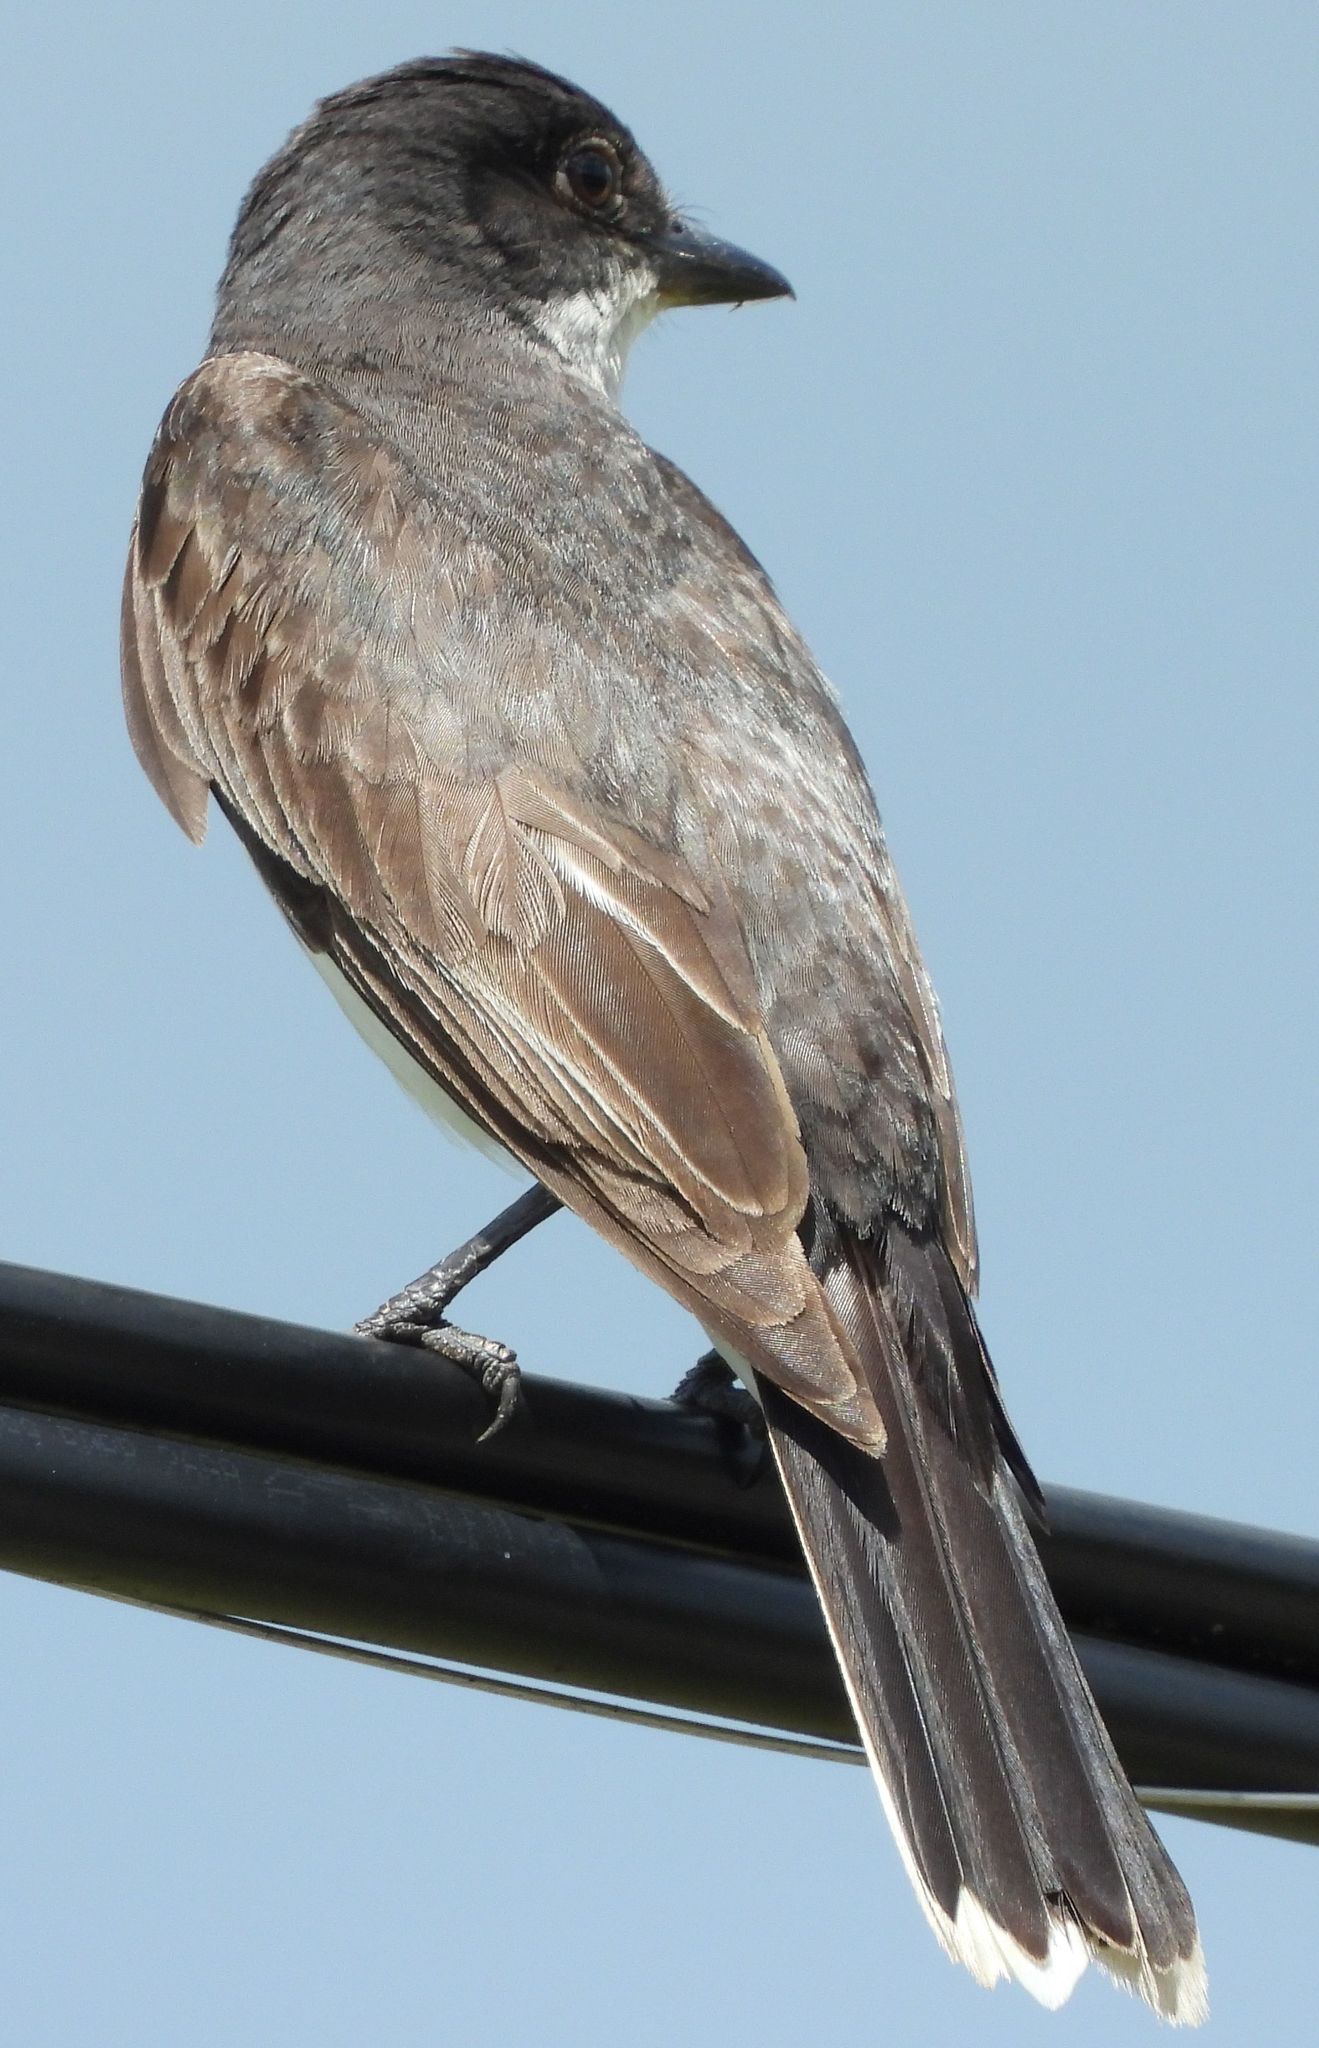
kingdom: Animalia
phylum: Chordata
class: Aves
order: Passeriformes
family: Tyrannidae
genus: Tyrannus
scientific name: Tyrannus tyrannus
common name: Eastern kingbird
